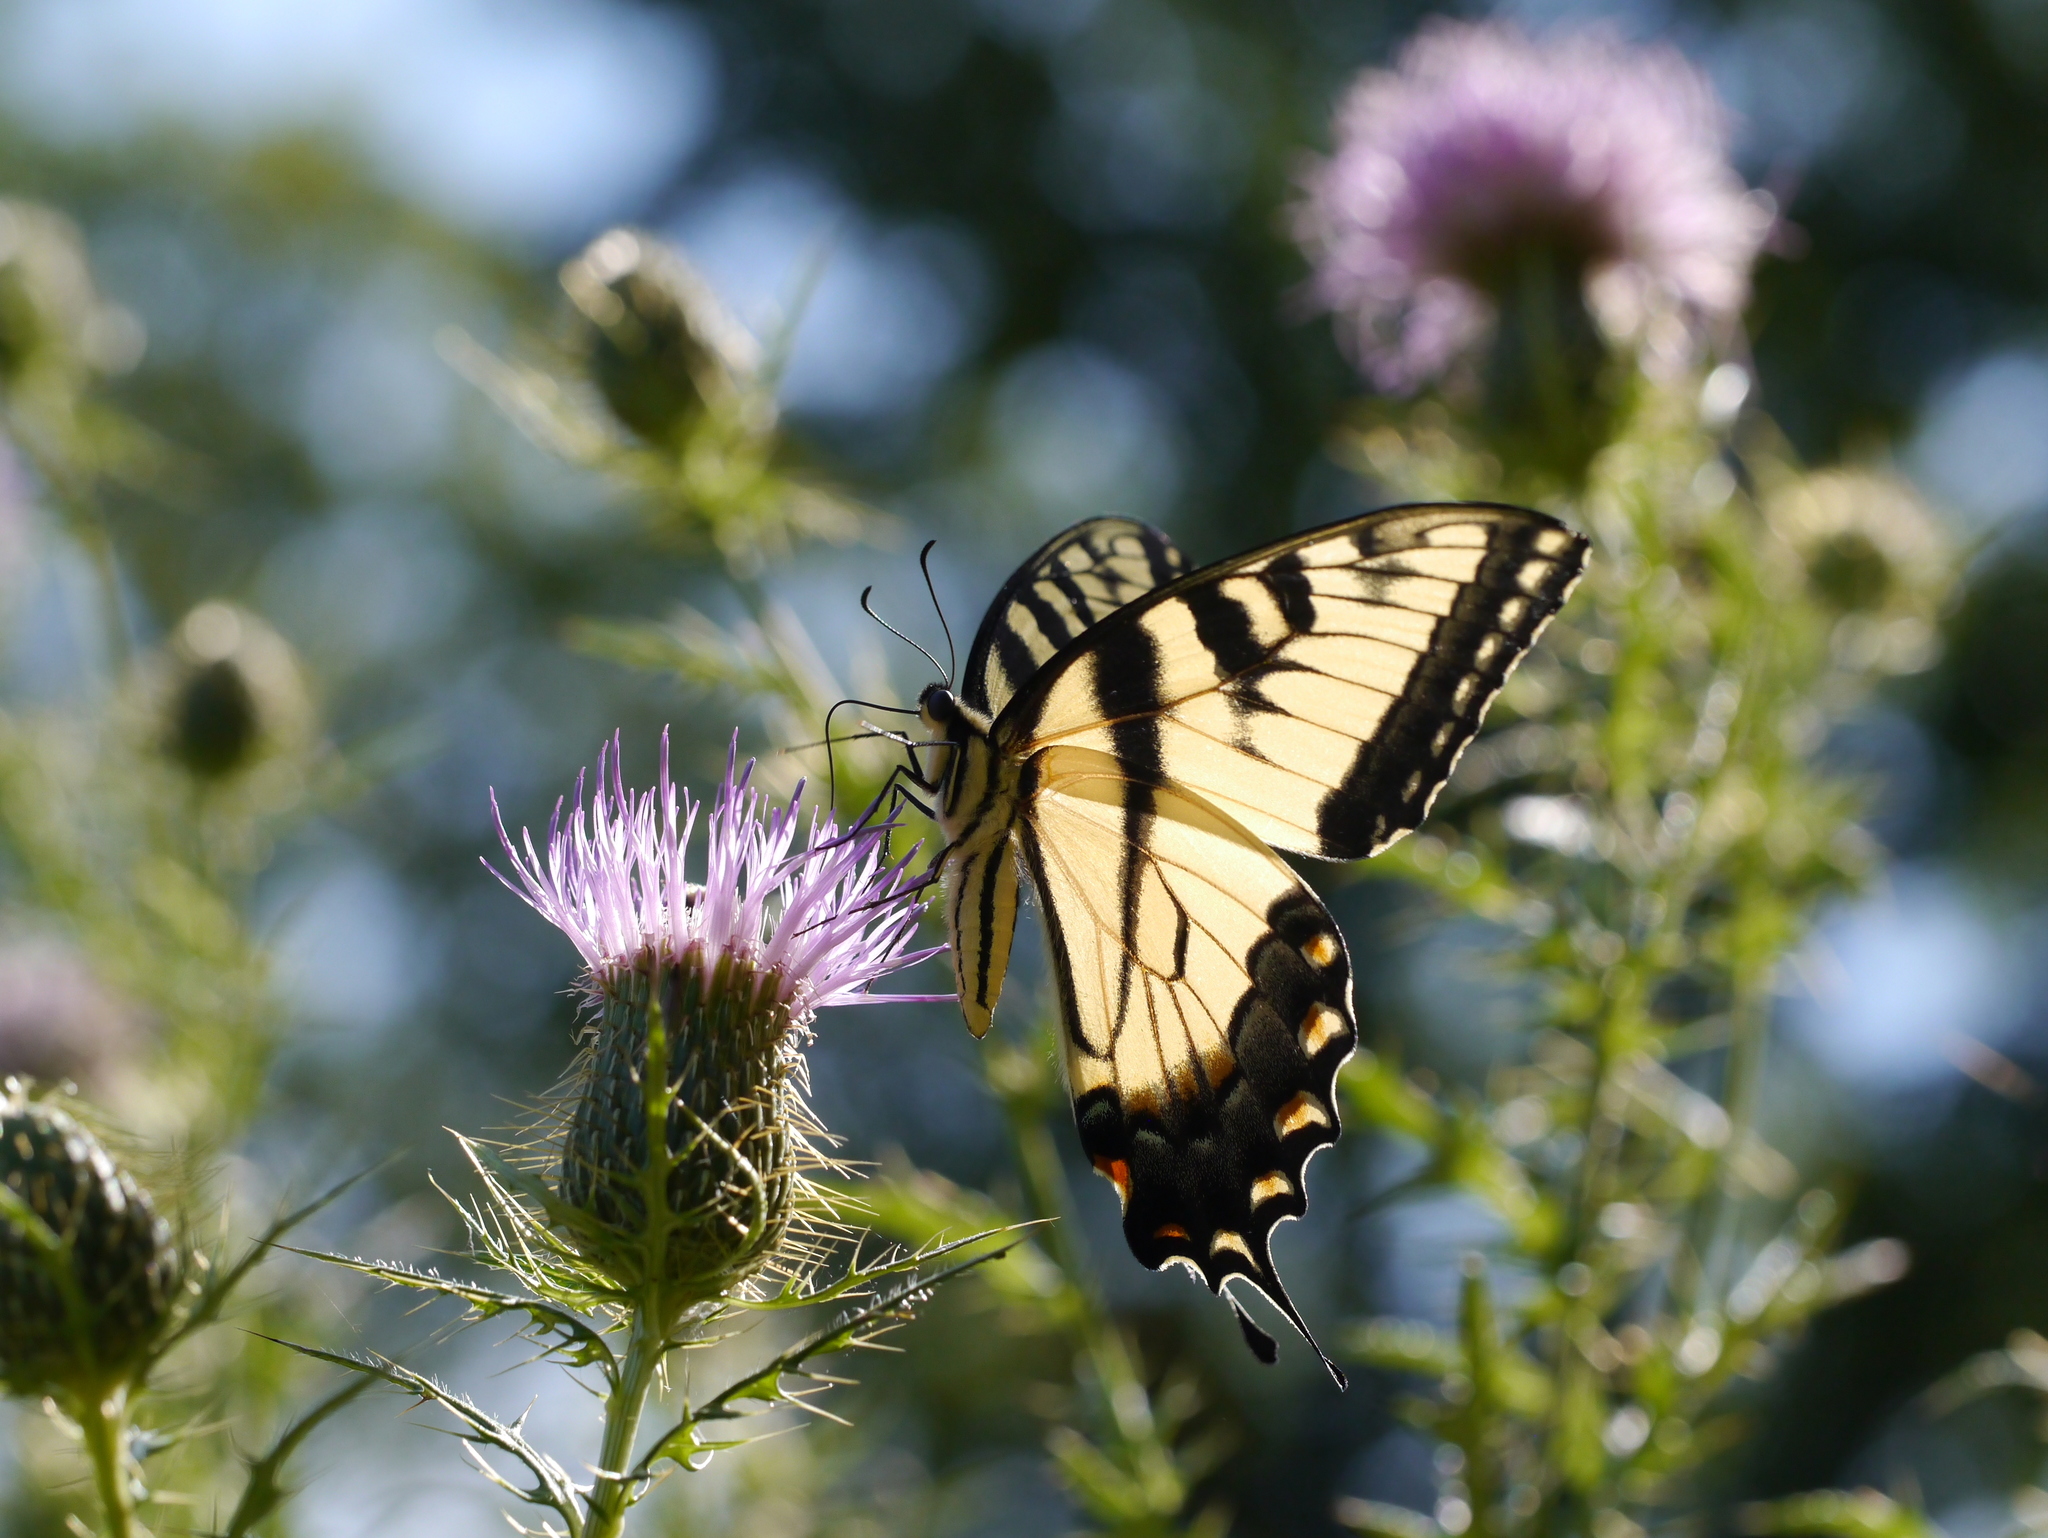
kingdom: Animalia
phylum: Arthropoda
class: Insecta
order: Lepidoptera
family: Papilionidae
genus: Papilio
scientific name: Papilio glaucus
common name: Tiger swallowtail
